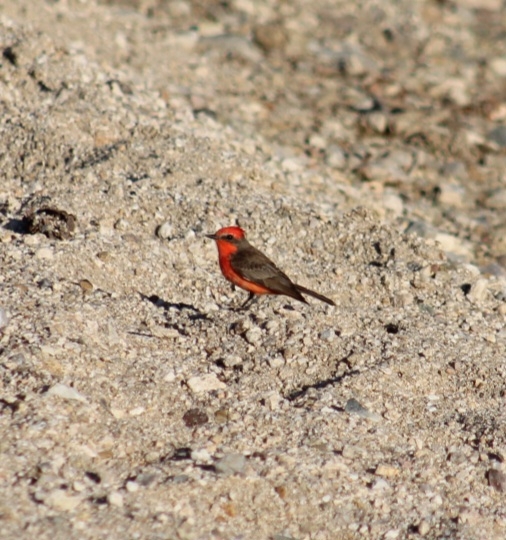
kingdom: Animalia
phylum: Chordata
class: Aves
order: Passeriformes
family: Tyrannidae
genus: Pyrocephalus
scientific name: Pyrocephalus rubinus
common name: Vermilion flycatcher
